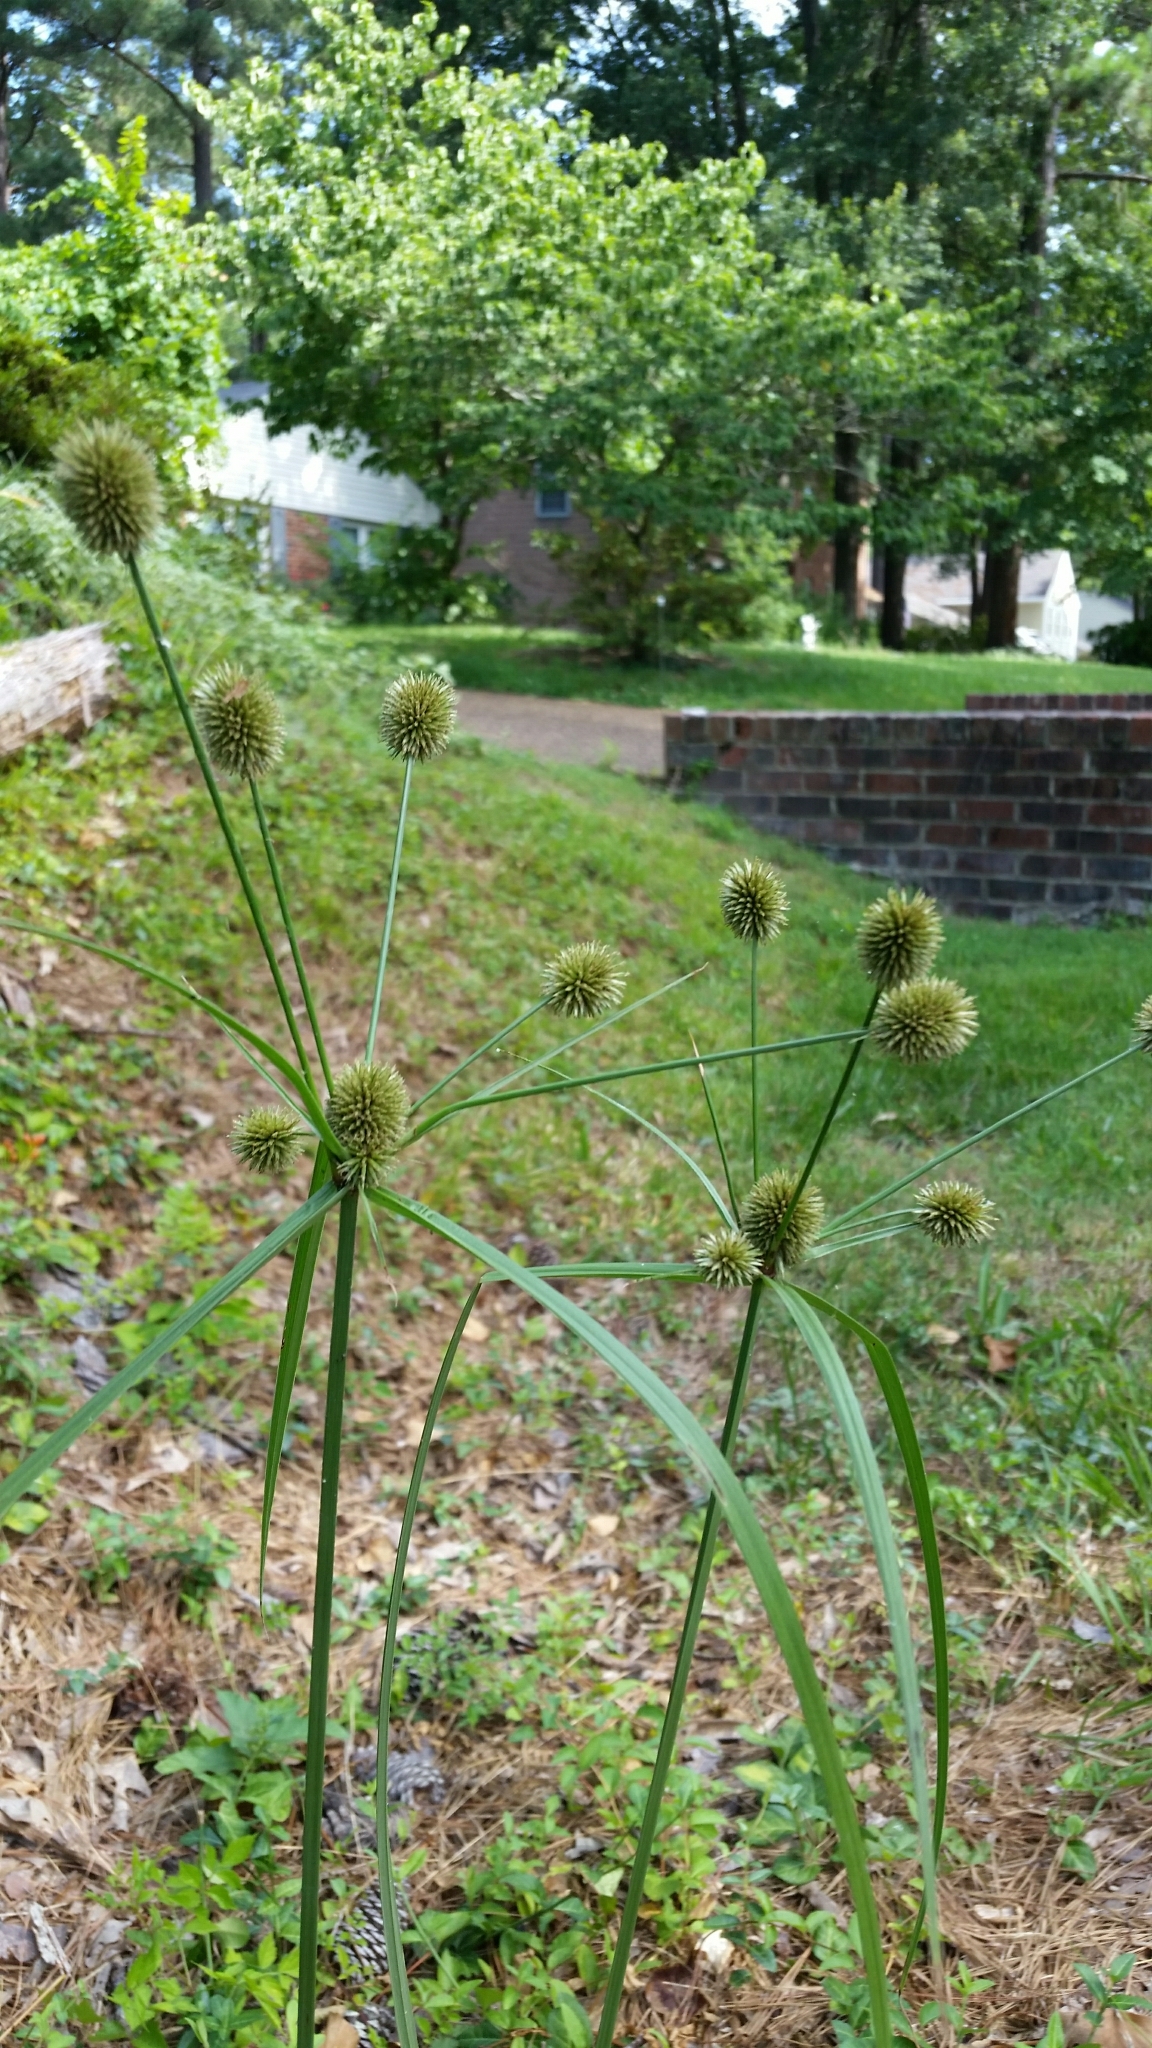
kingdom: Plantae
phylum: Tracheophyta
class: Liliopsida
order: Poales
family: Cyperaceae
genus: Cyperus
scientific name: Cyperus echinatus
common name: Teasel sedge
